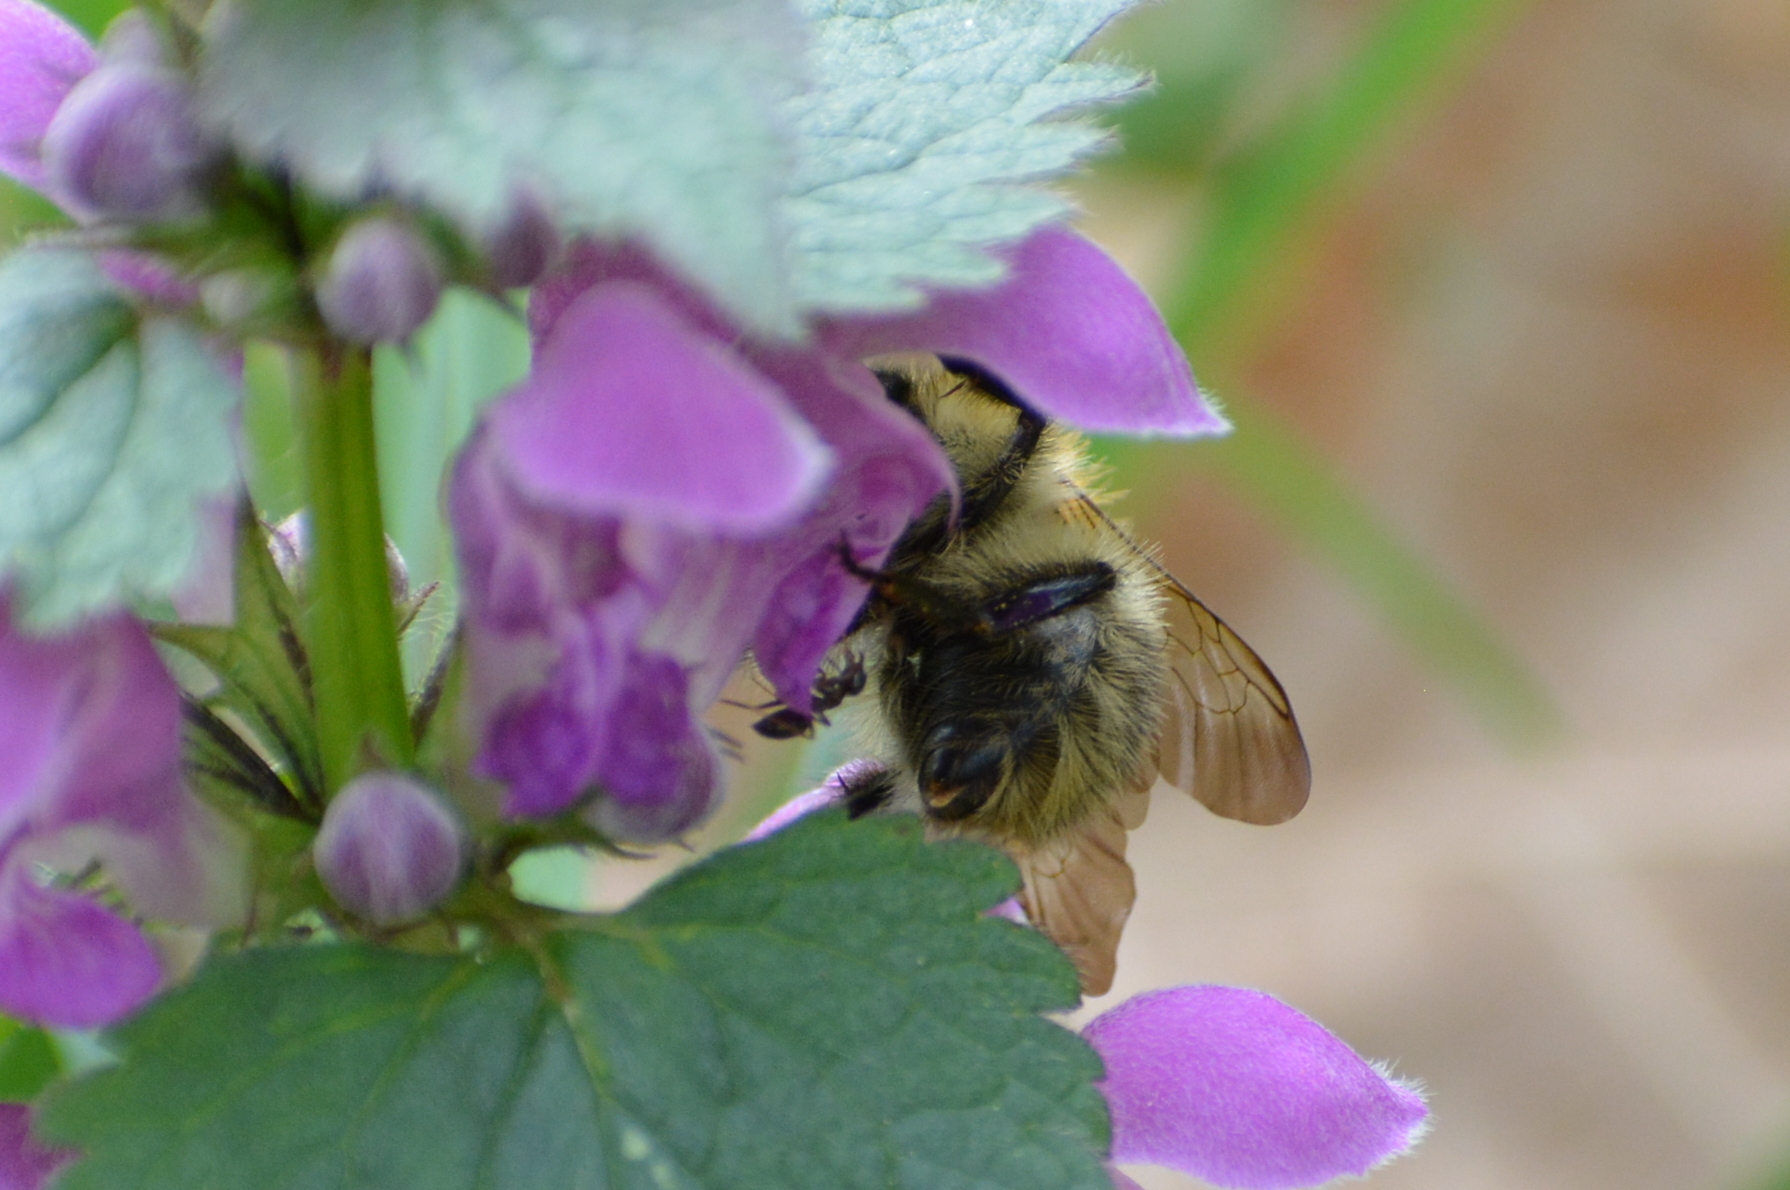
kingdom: Animalia
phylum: Arthropoda
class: Insecta
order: Hymenoptera
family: Apidae
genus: Bombus
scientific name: Bombus pascuorum
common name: Common carder bee
